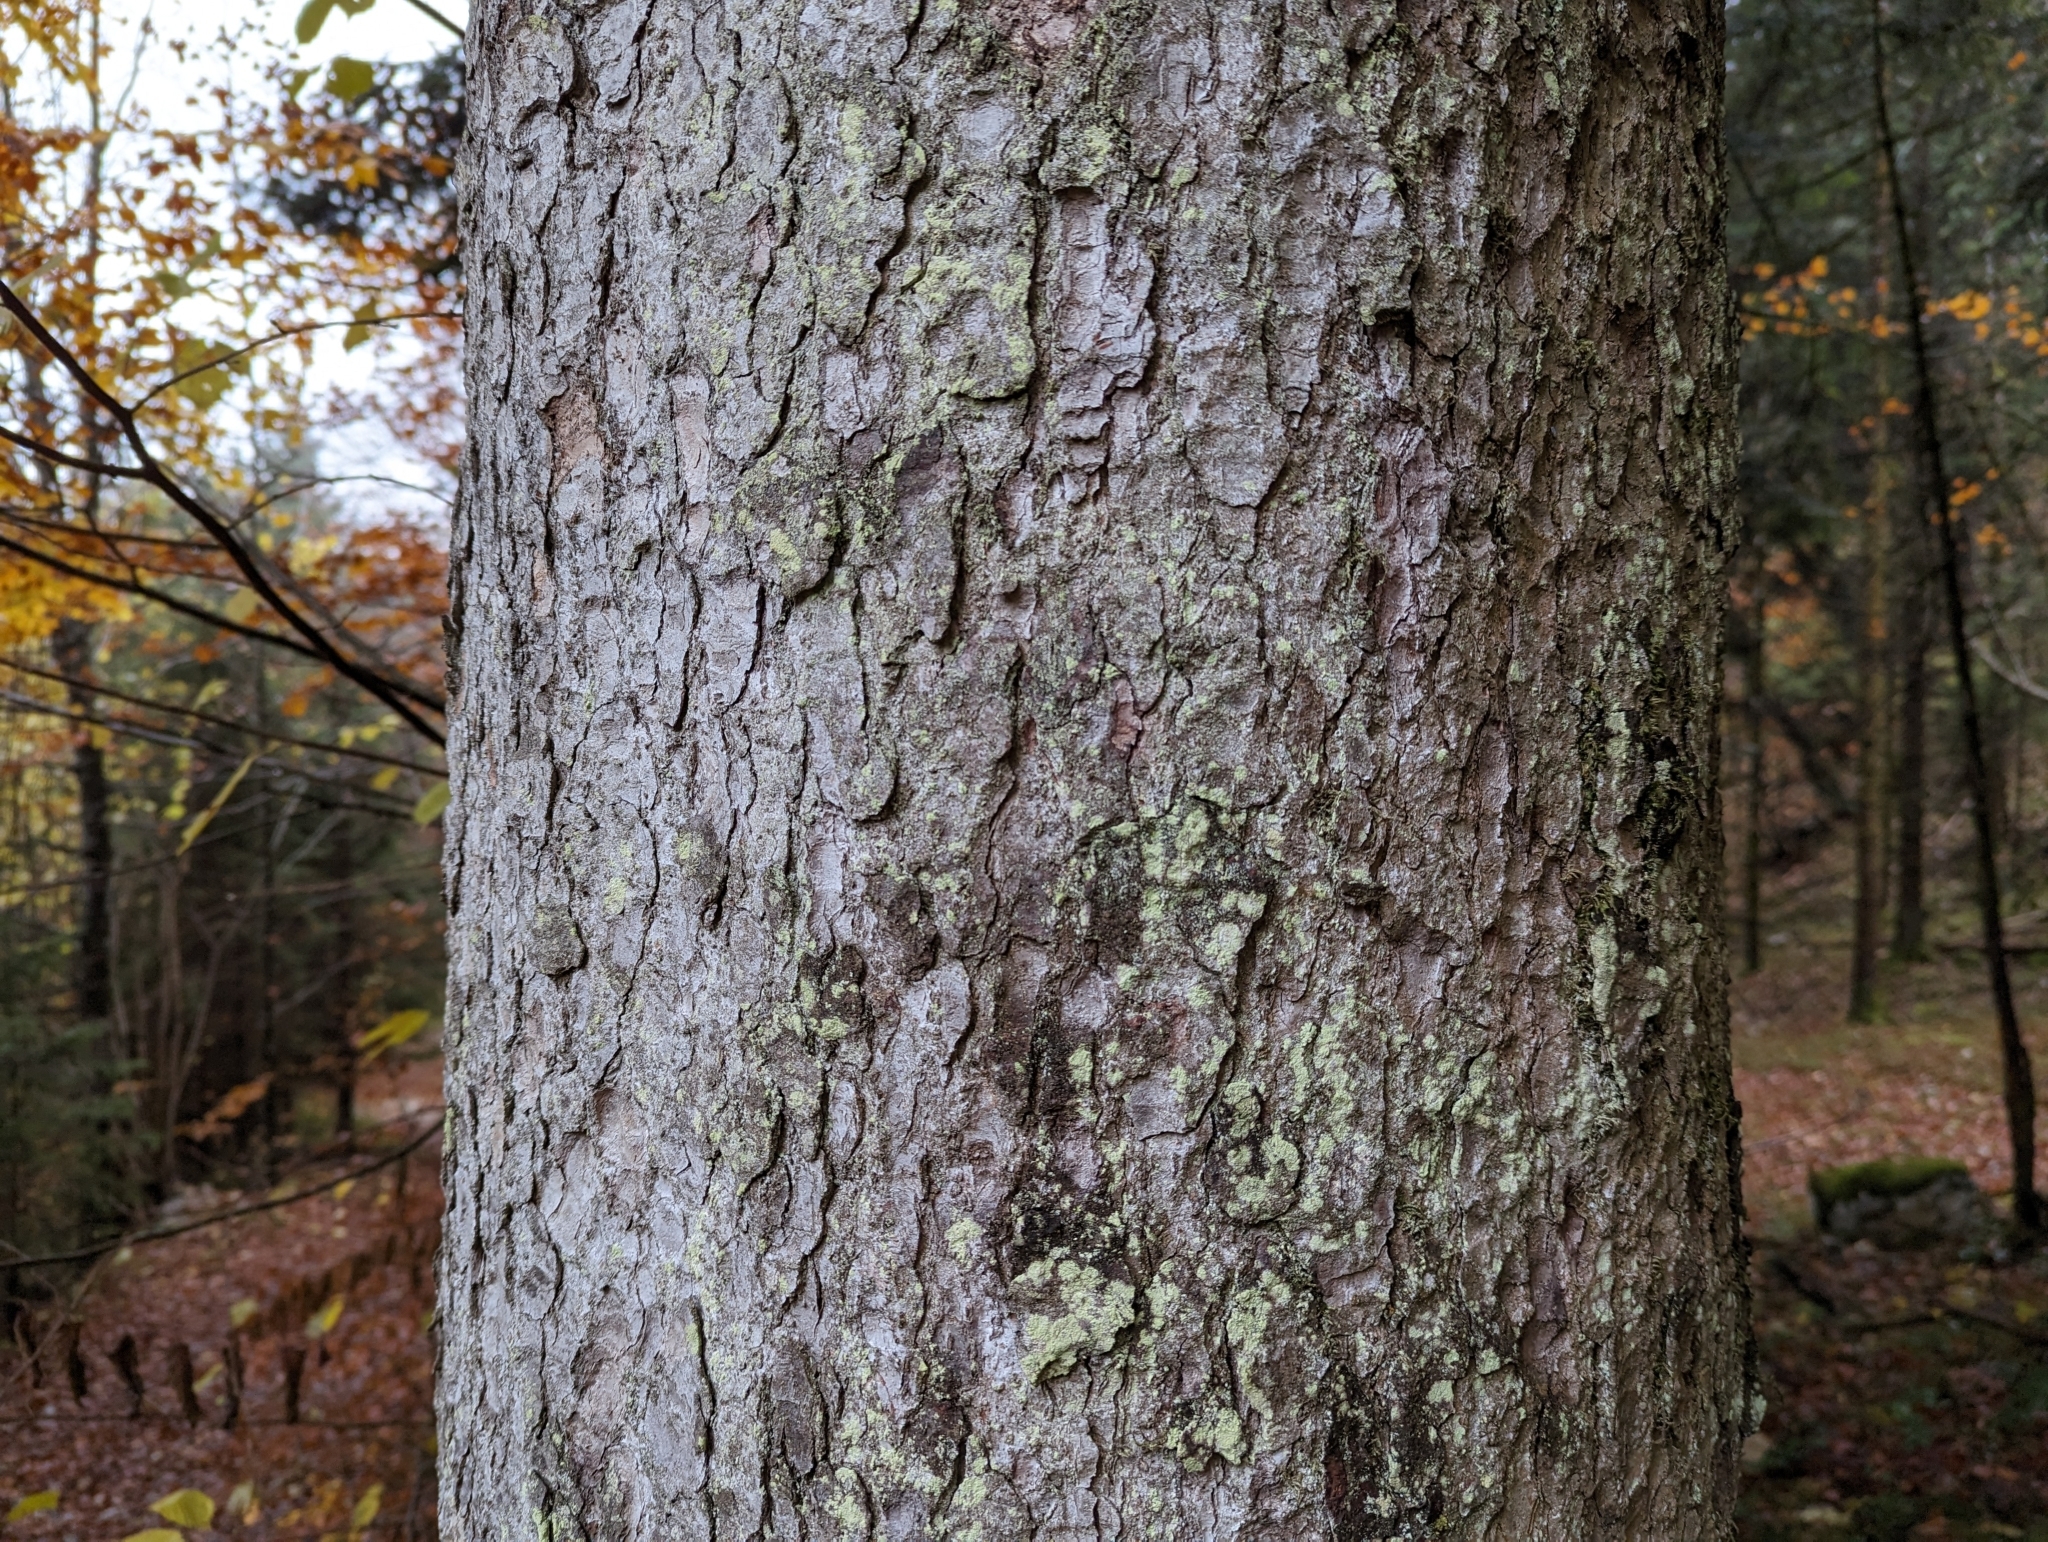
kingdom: Plantae
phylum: Tracheophyta
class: Pinopsida
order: Pinales
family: Pinaceae
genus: Abies
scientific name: Abies alba
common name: Silver fir
